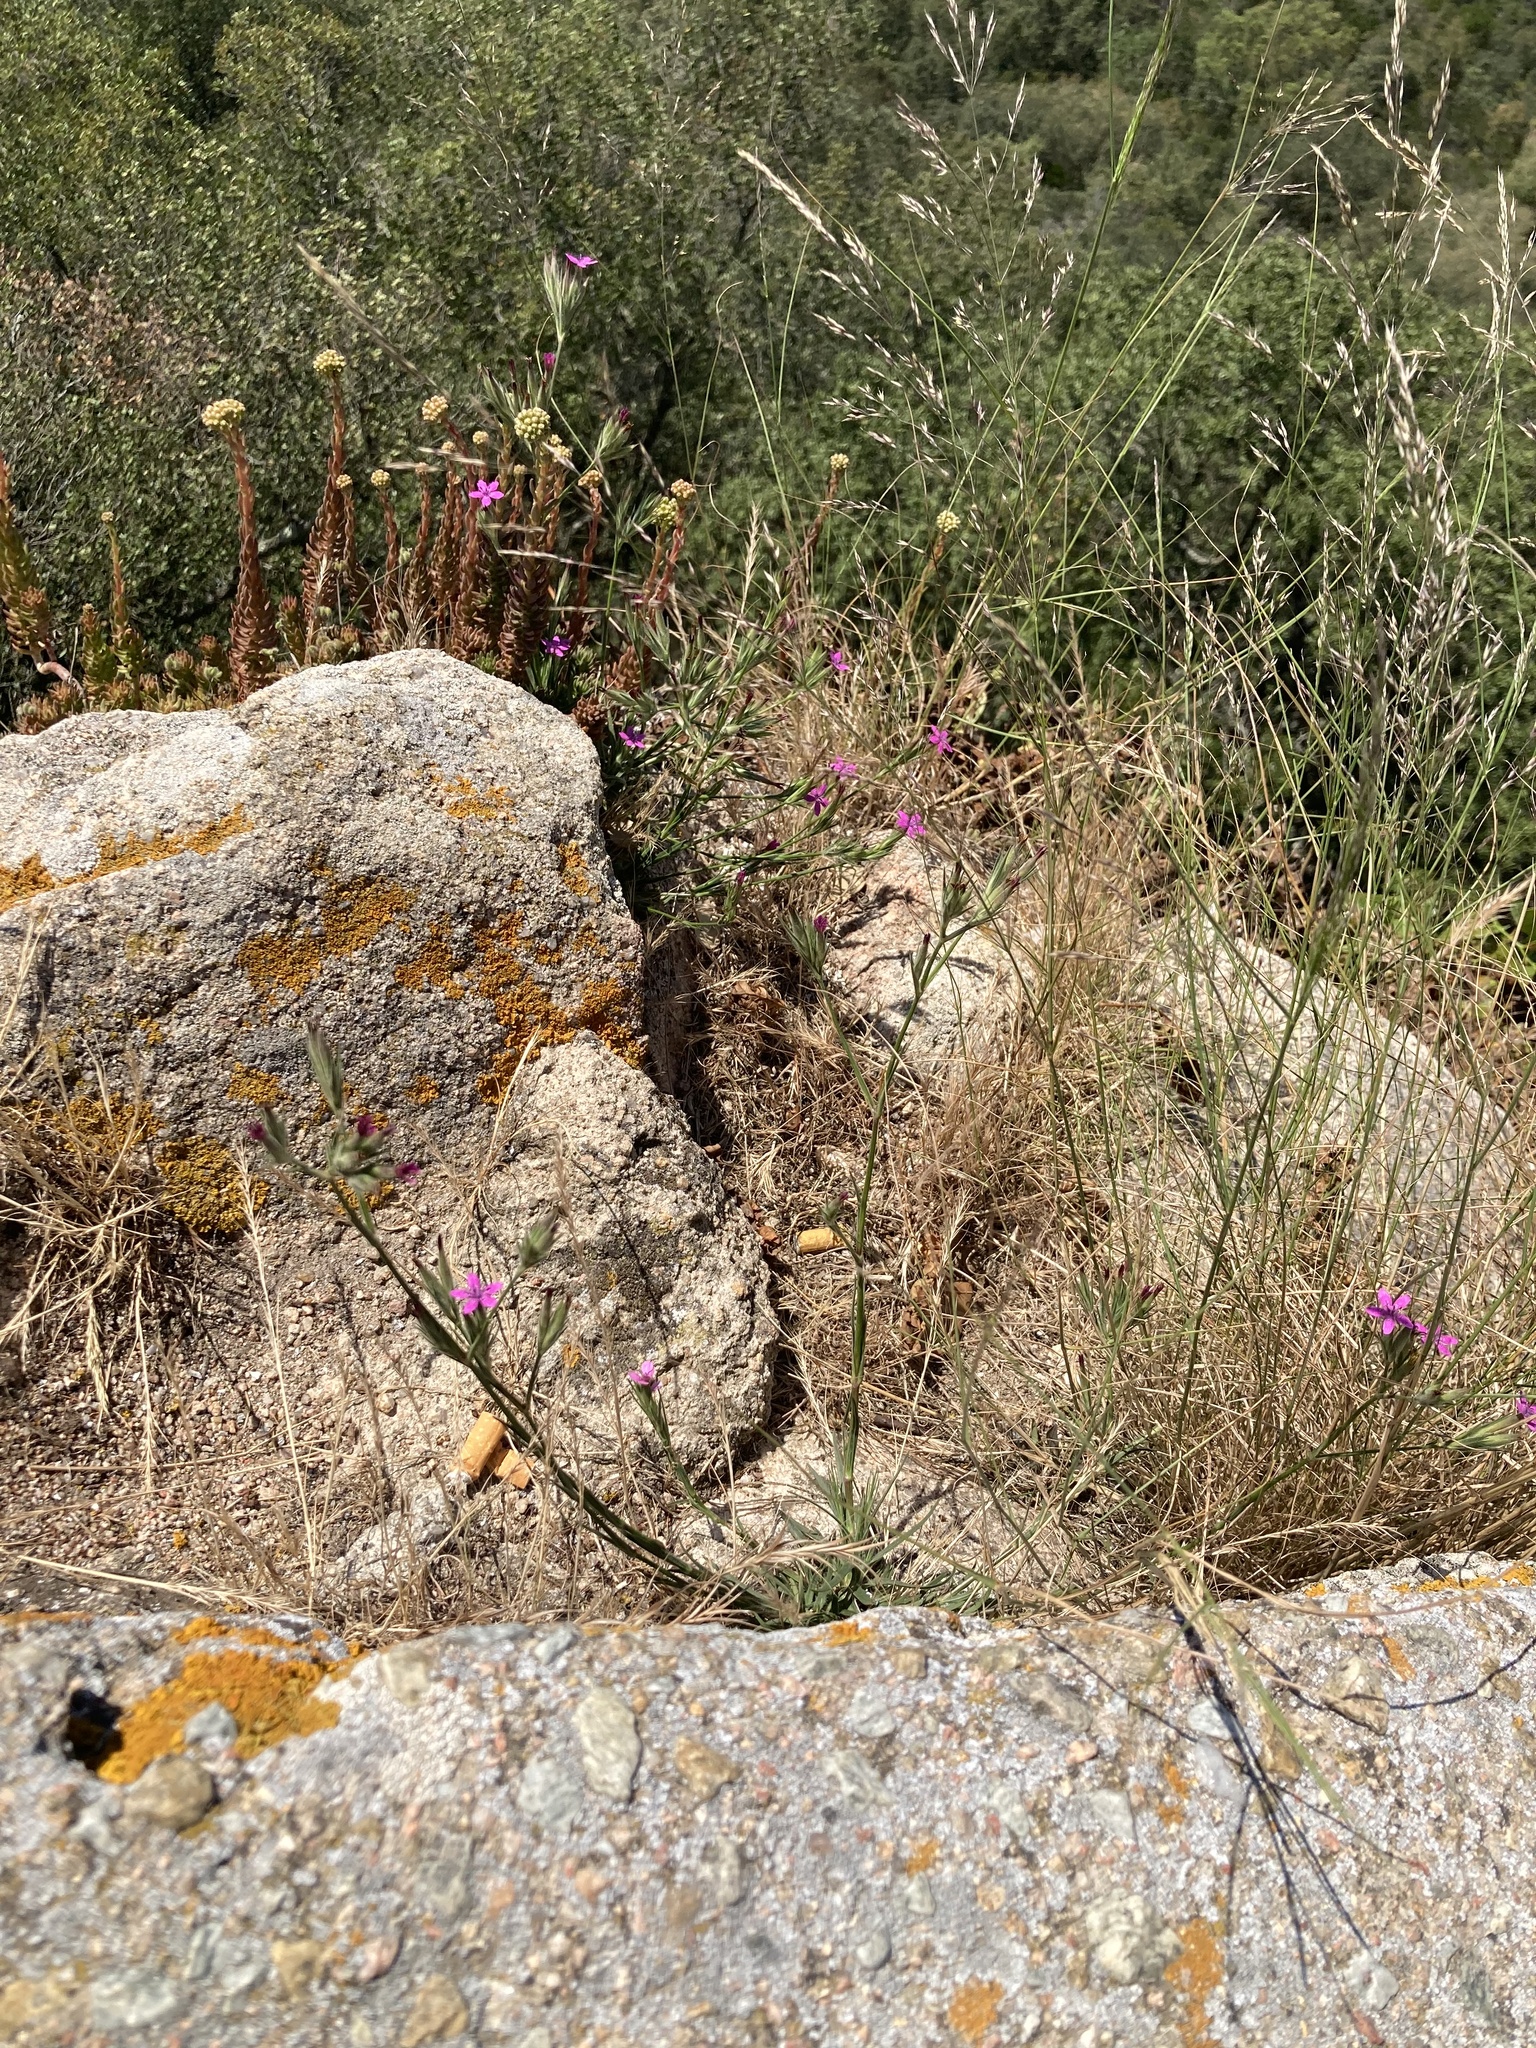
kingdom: Plantae
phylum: Tracheophyta
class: Magnoliopsida
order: Caryophyllales
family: Caryophyllaceae
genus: Dianthus
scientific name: Dianthus armeria
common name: Deptford pink
